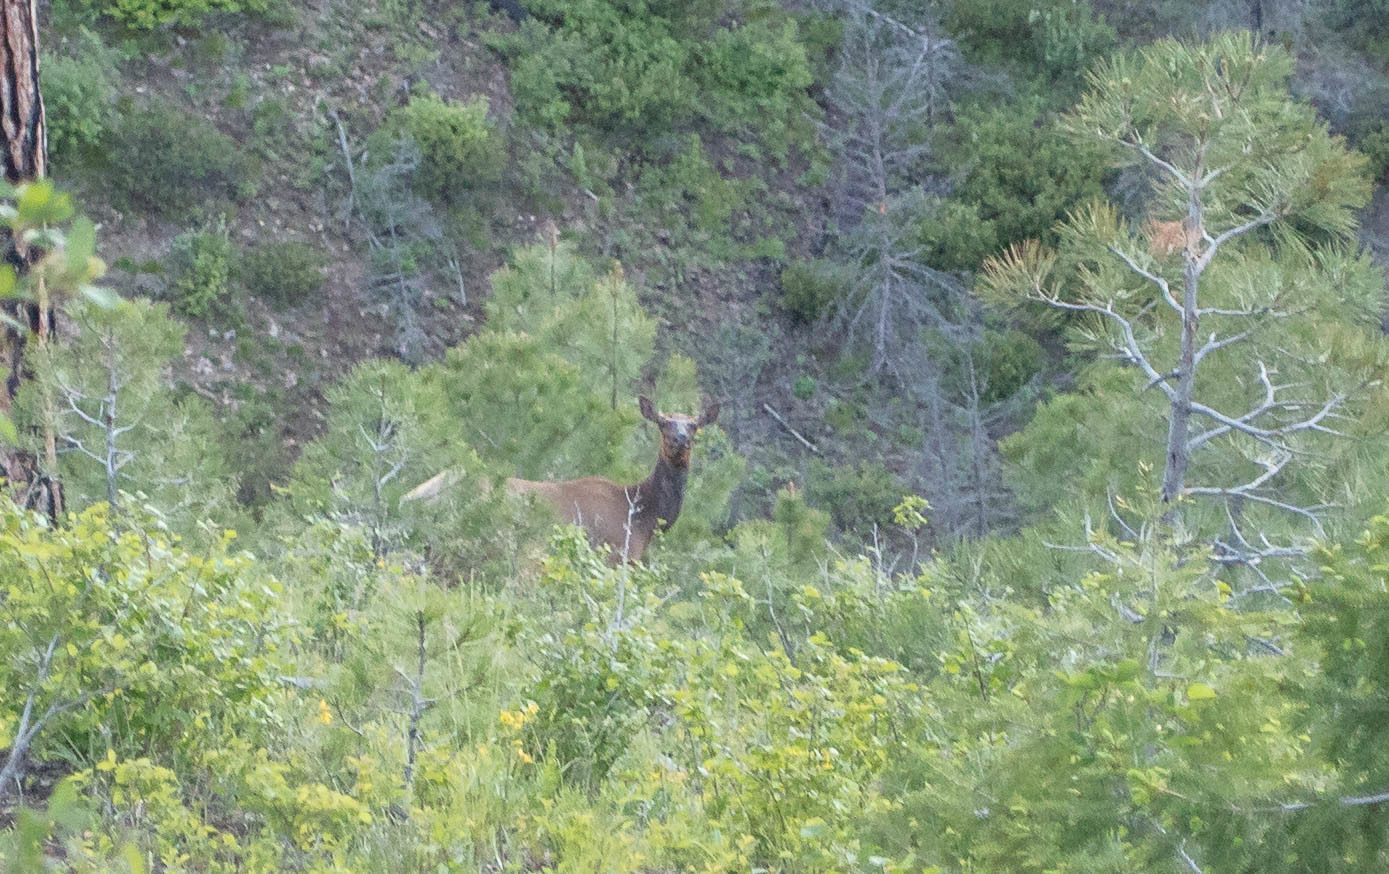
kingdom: Animalia
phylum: Chordata
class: Mammalia
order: Artiodactyla
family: Cervidae
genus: Cervus
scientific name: Cervus elaphus
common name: Red deer
